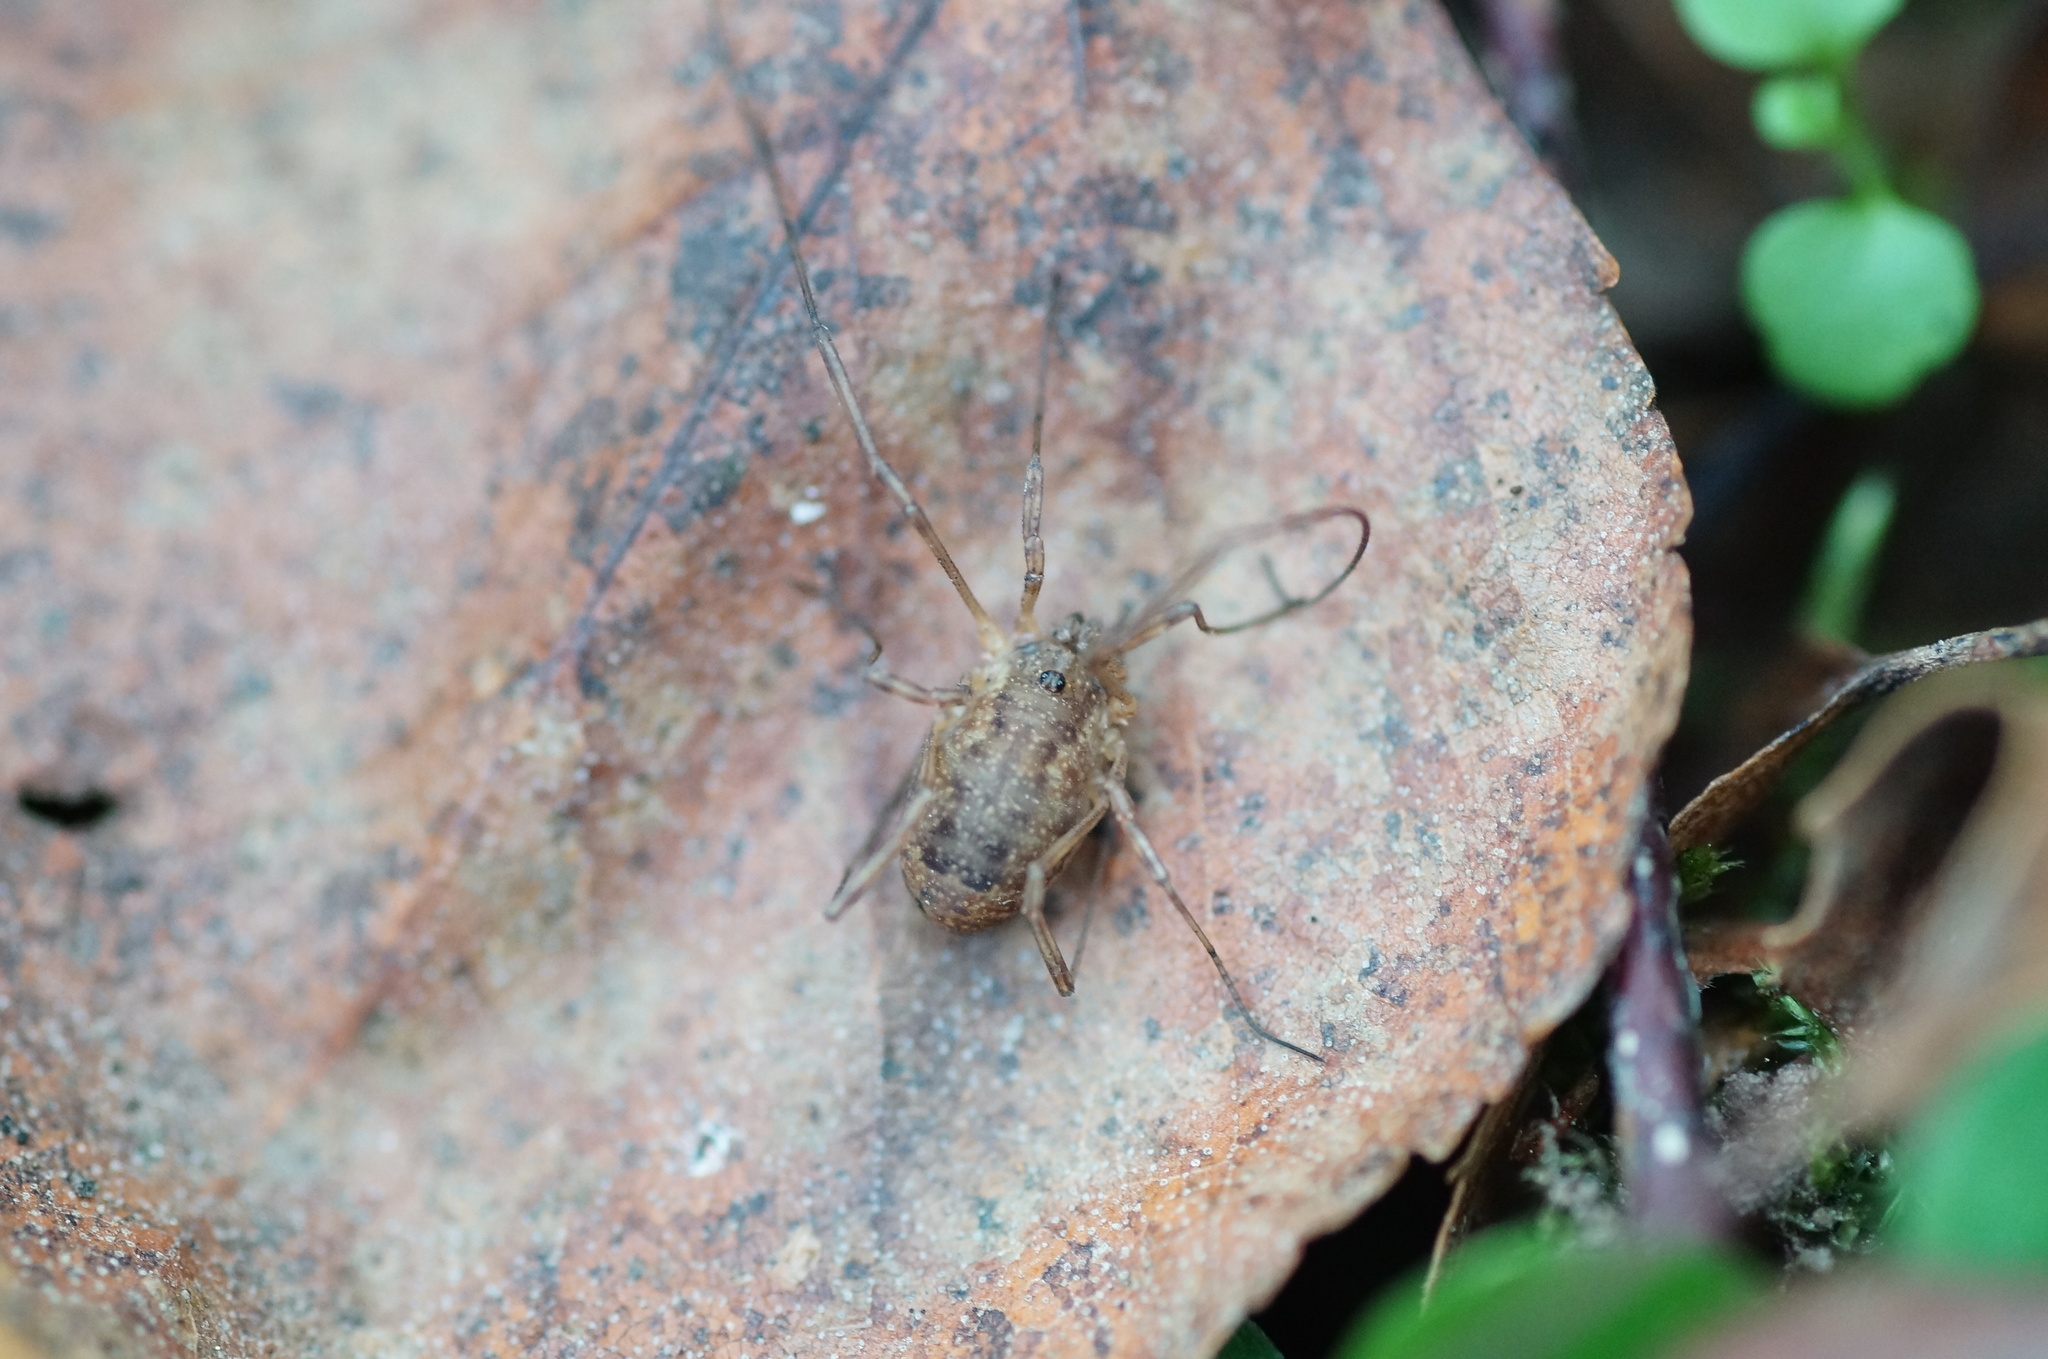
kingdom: Animalia
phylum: Arthropoda
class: Arachnida
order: Opiliones
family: Phalangiidae
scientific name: Phalangiidae
